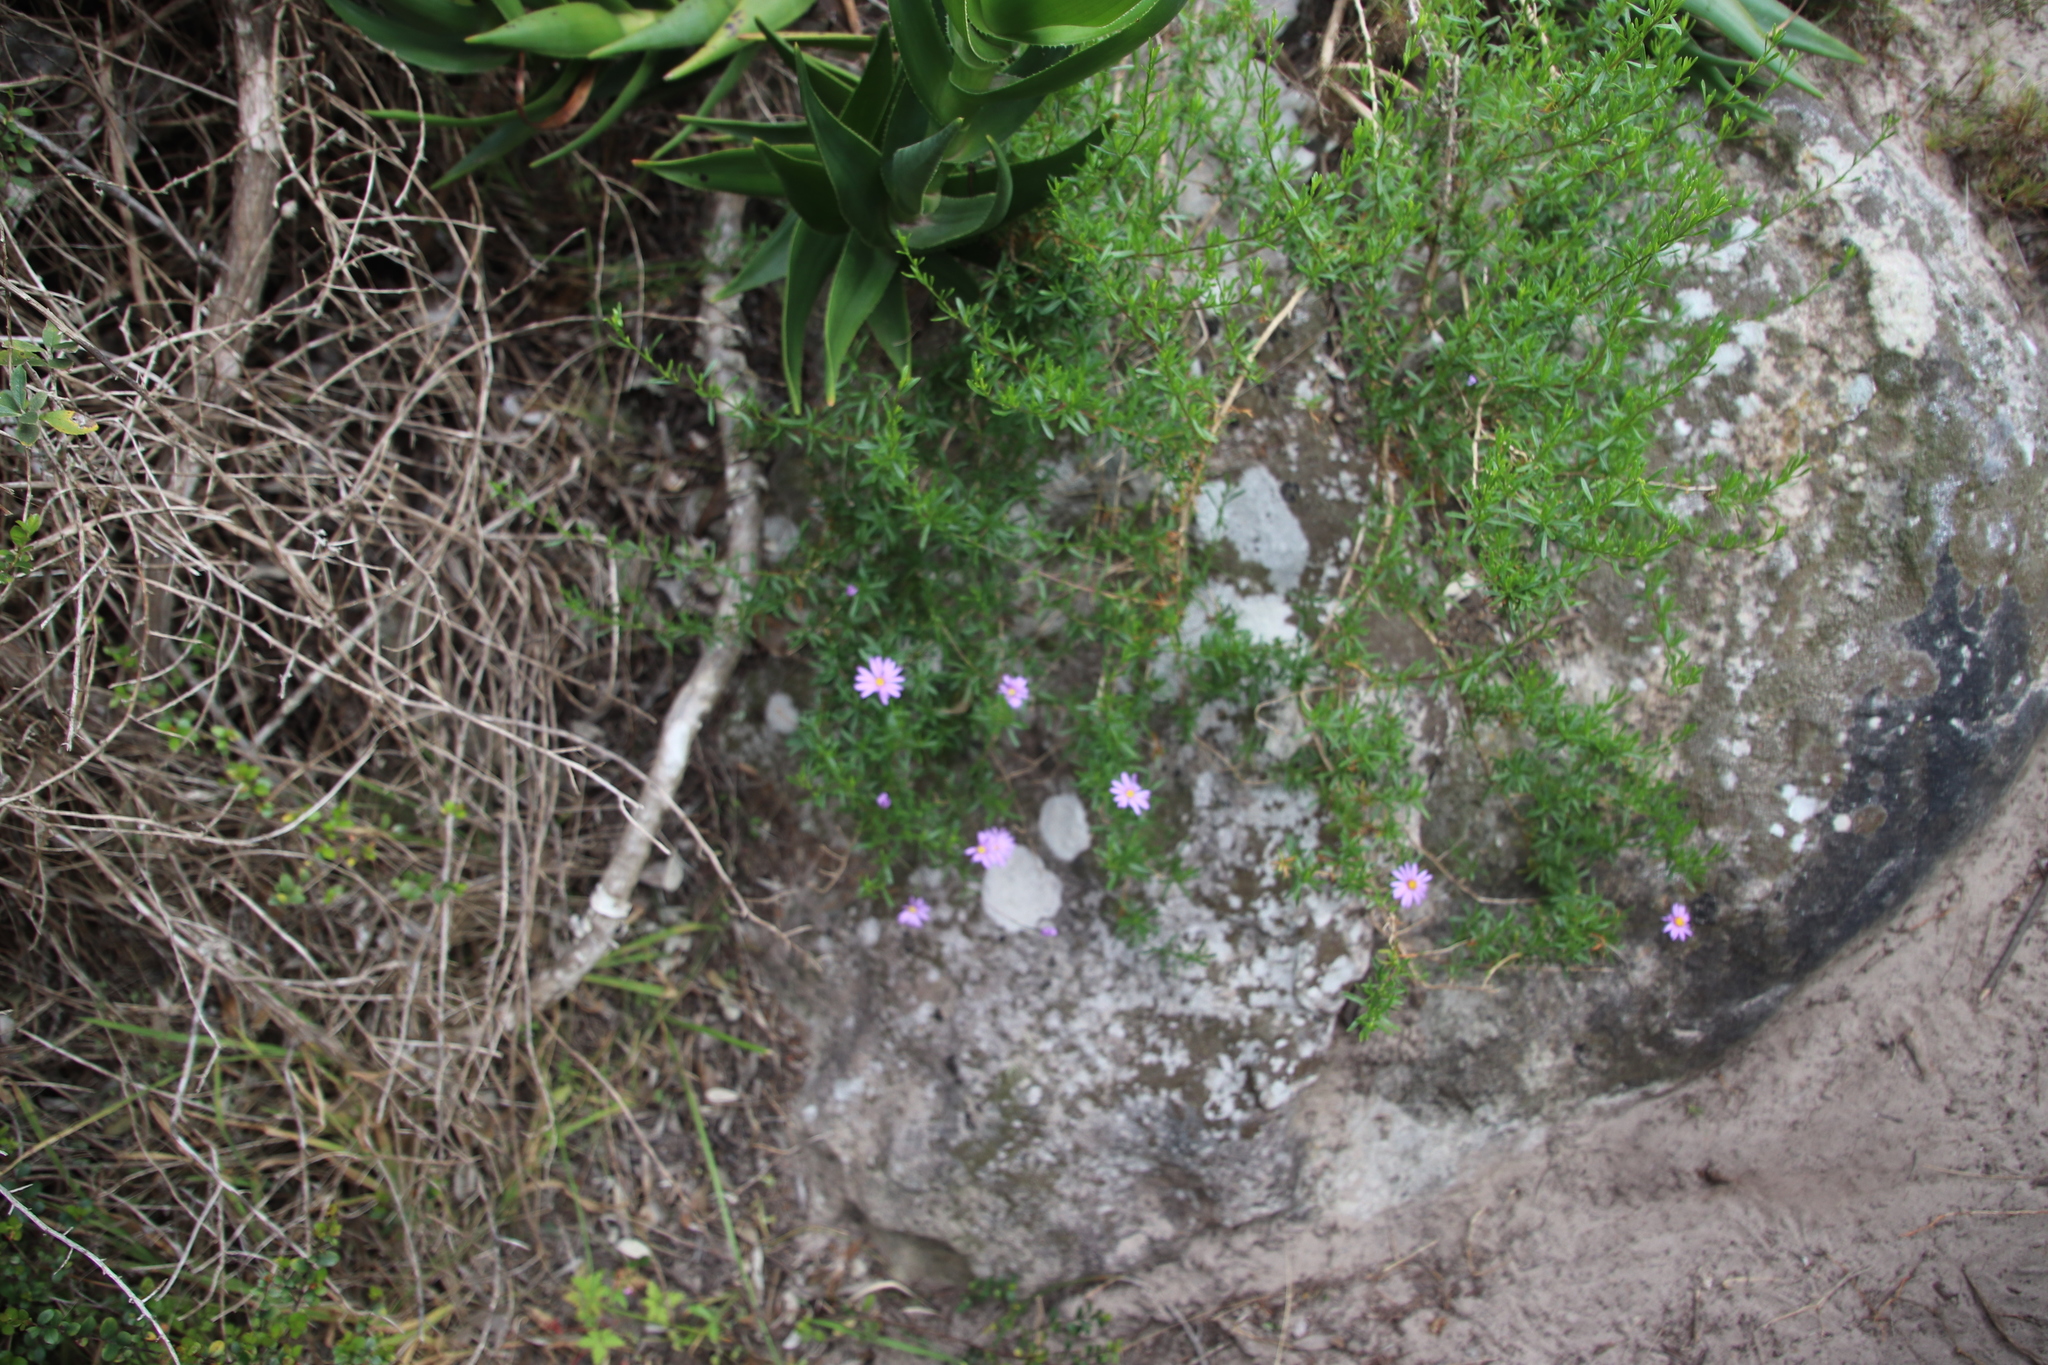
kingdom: Plantae
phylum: Tracheophyta
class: Magnoliopsida
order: Asterales
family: Asteraceae
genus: Felicia
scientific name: Felicia fruticosa
